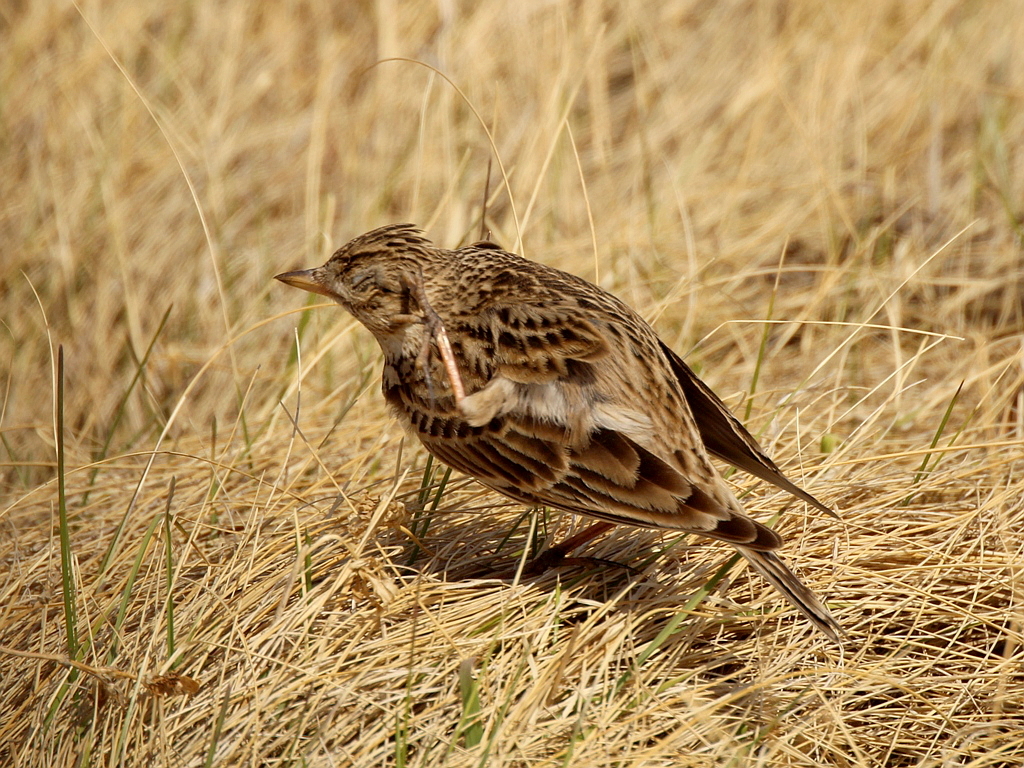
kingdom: Animalia
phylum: Chordata
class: Aves
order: Passeriformes
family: Alaudidae
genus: Alauda
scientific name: Alauda arvensis
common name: Eurasian skylark
